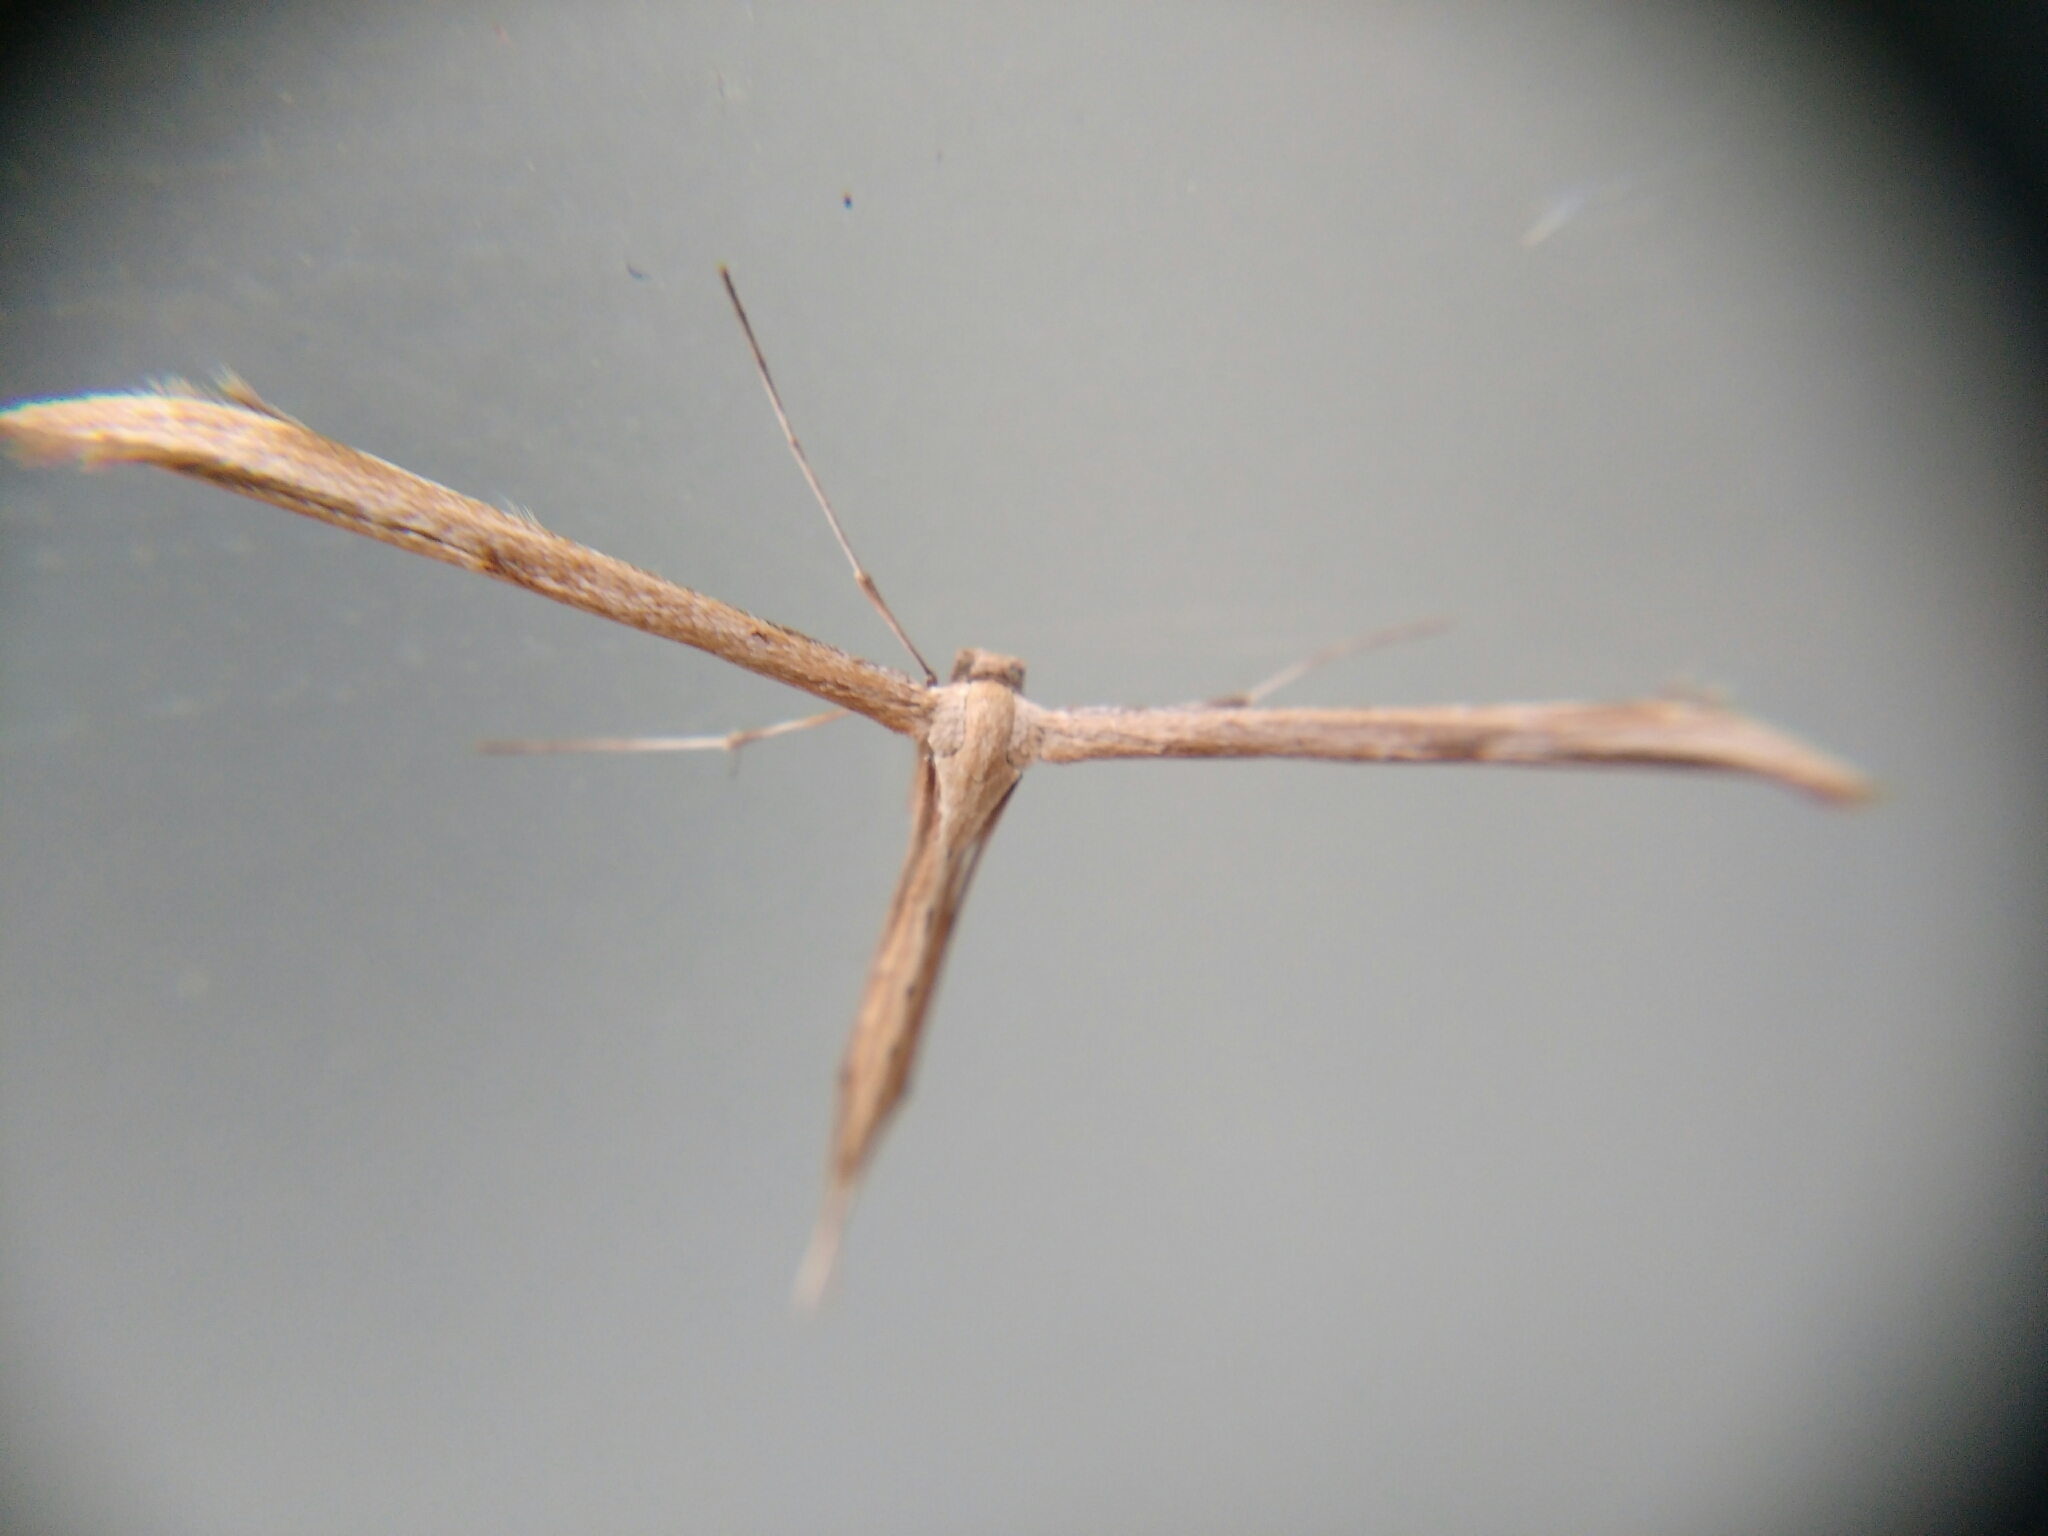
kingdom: Animalia
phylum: Arthropoda
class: Insecta
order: Lepidoptera
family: Pterophoridae
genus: Emmelina
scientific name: Emmelina monodactyla
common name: Common plume
